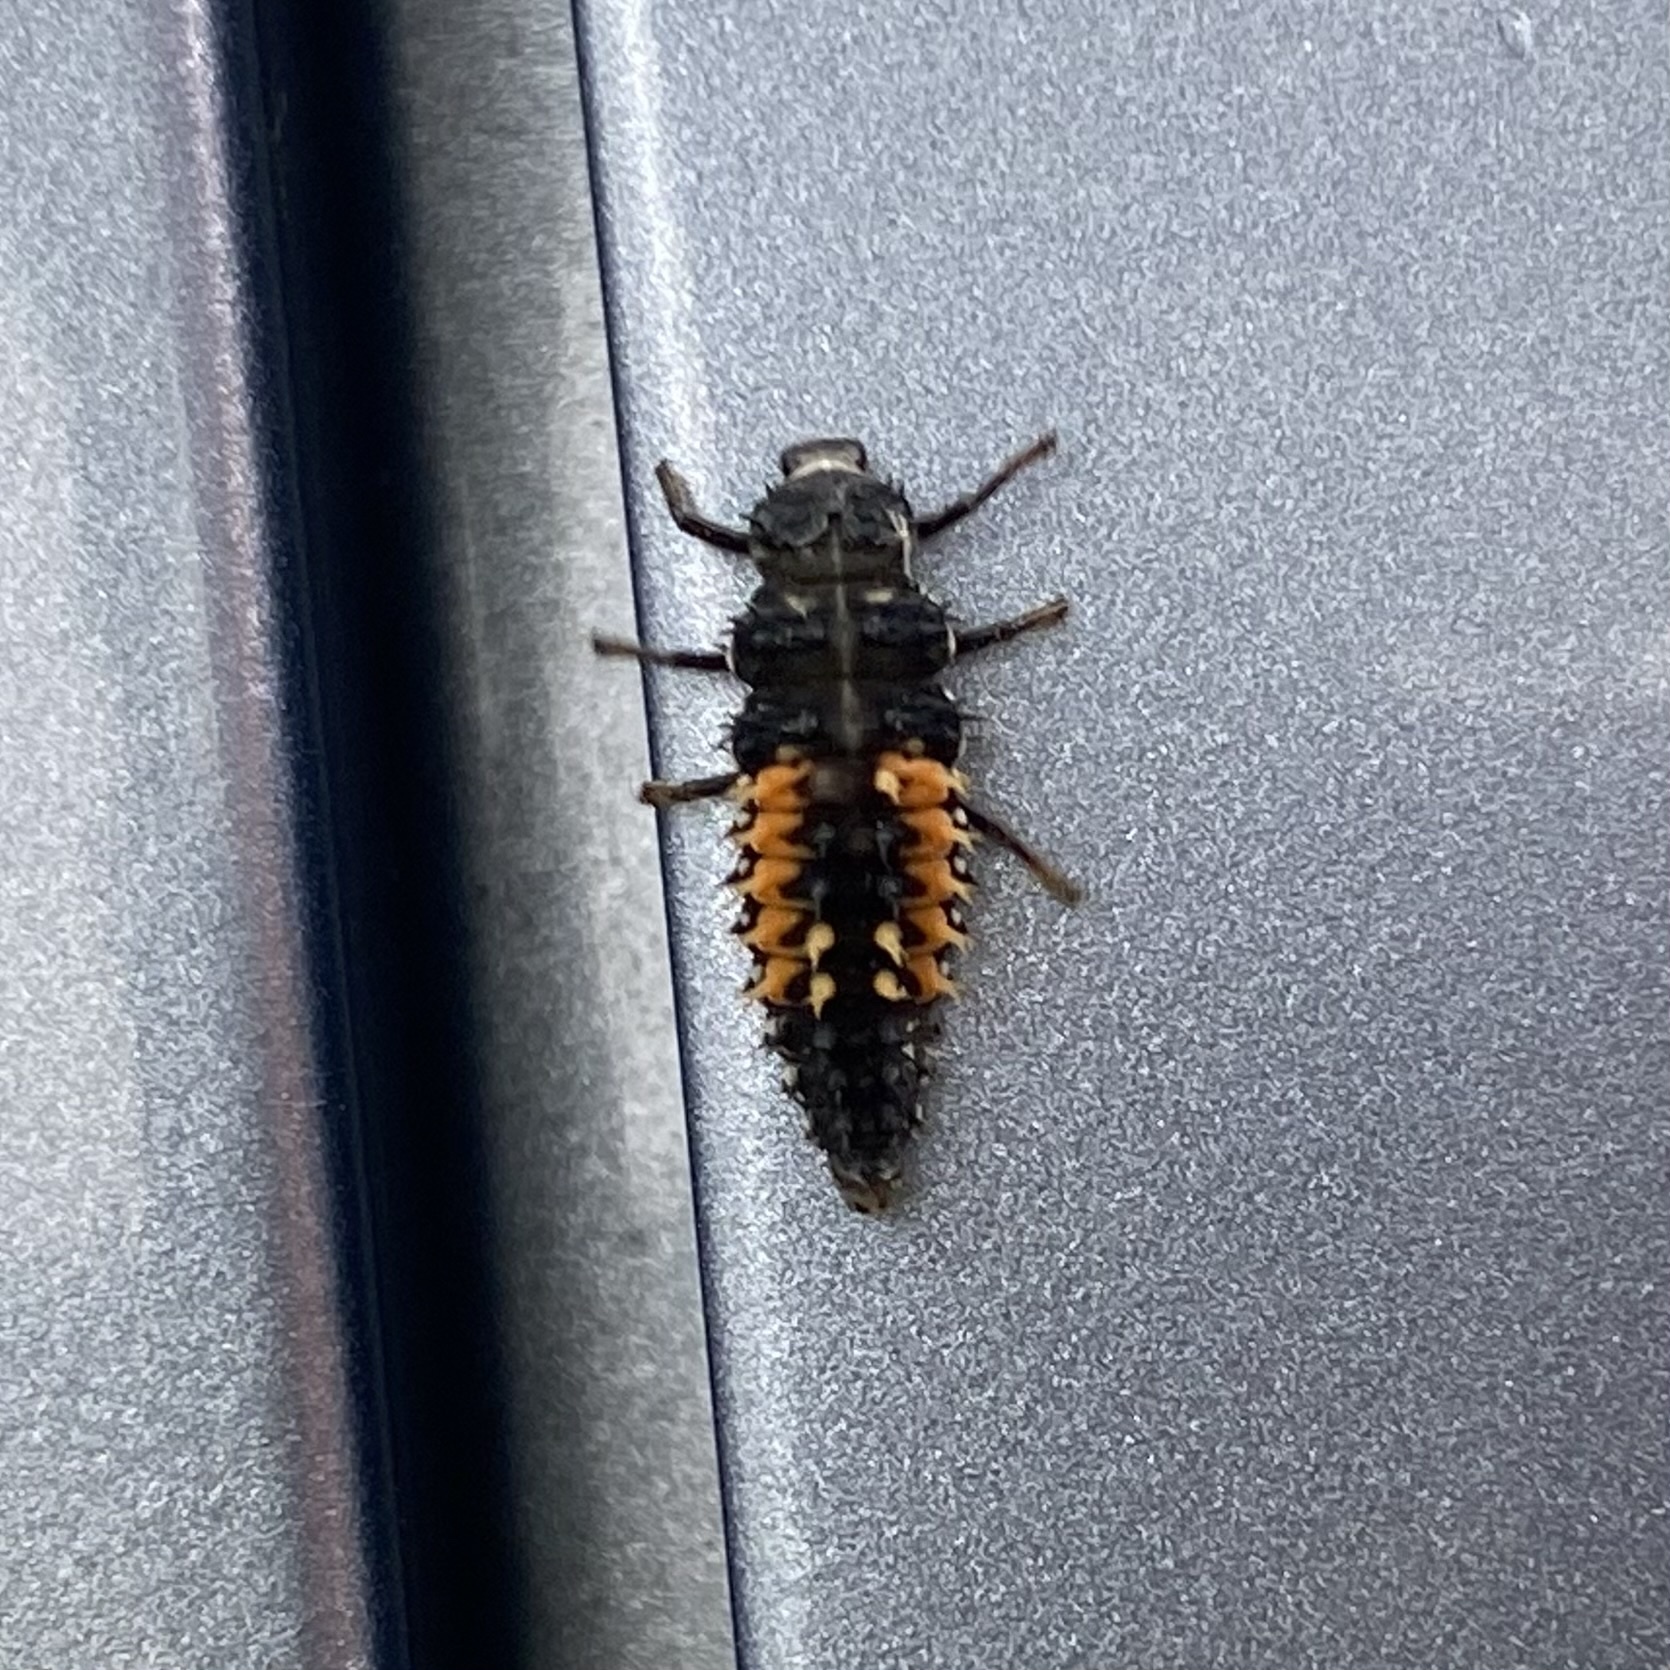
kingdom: Animalia
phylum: Arthropoda
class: Insecta
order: Coleoptera
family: Coccinellidae
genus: Harmonia
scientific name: Harmonia axyridis
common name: Harlequin ladybird
